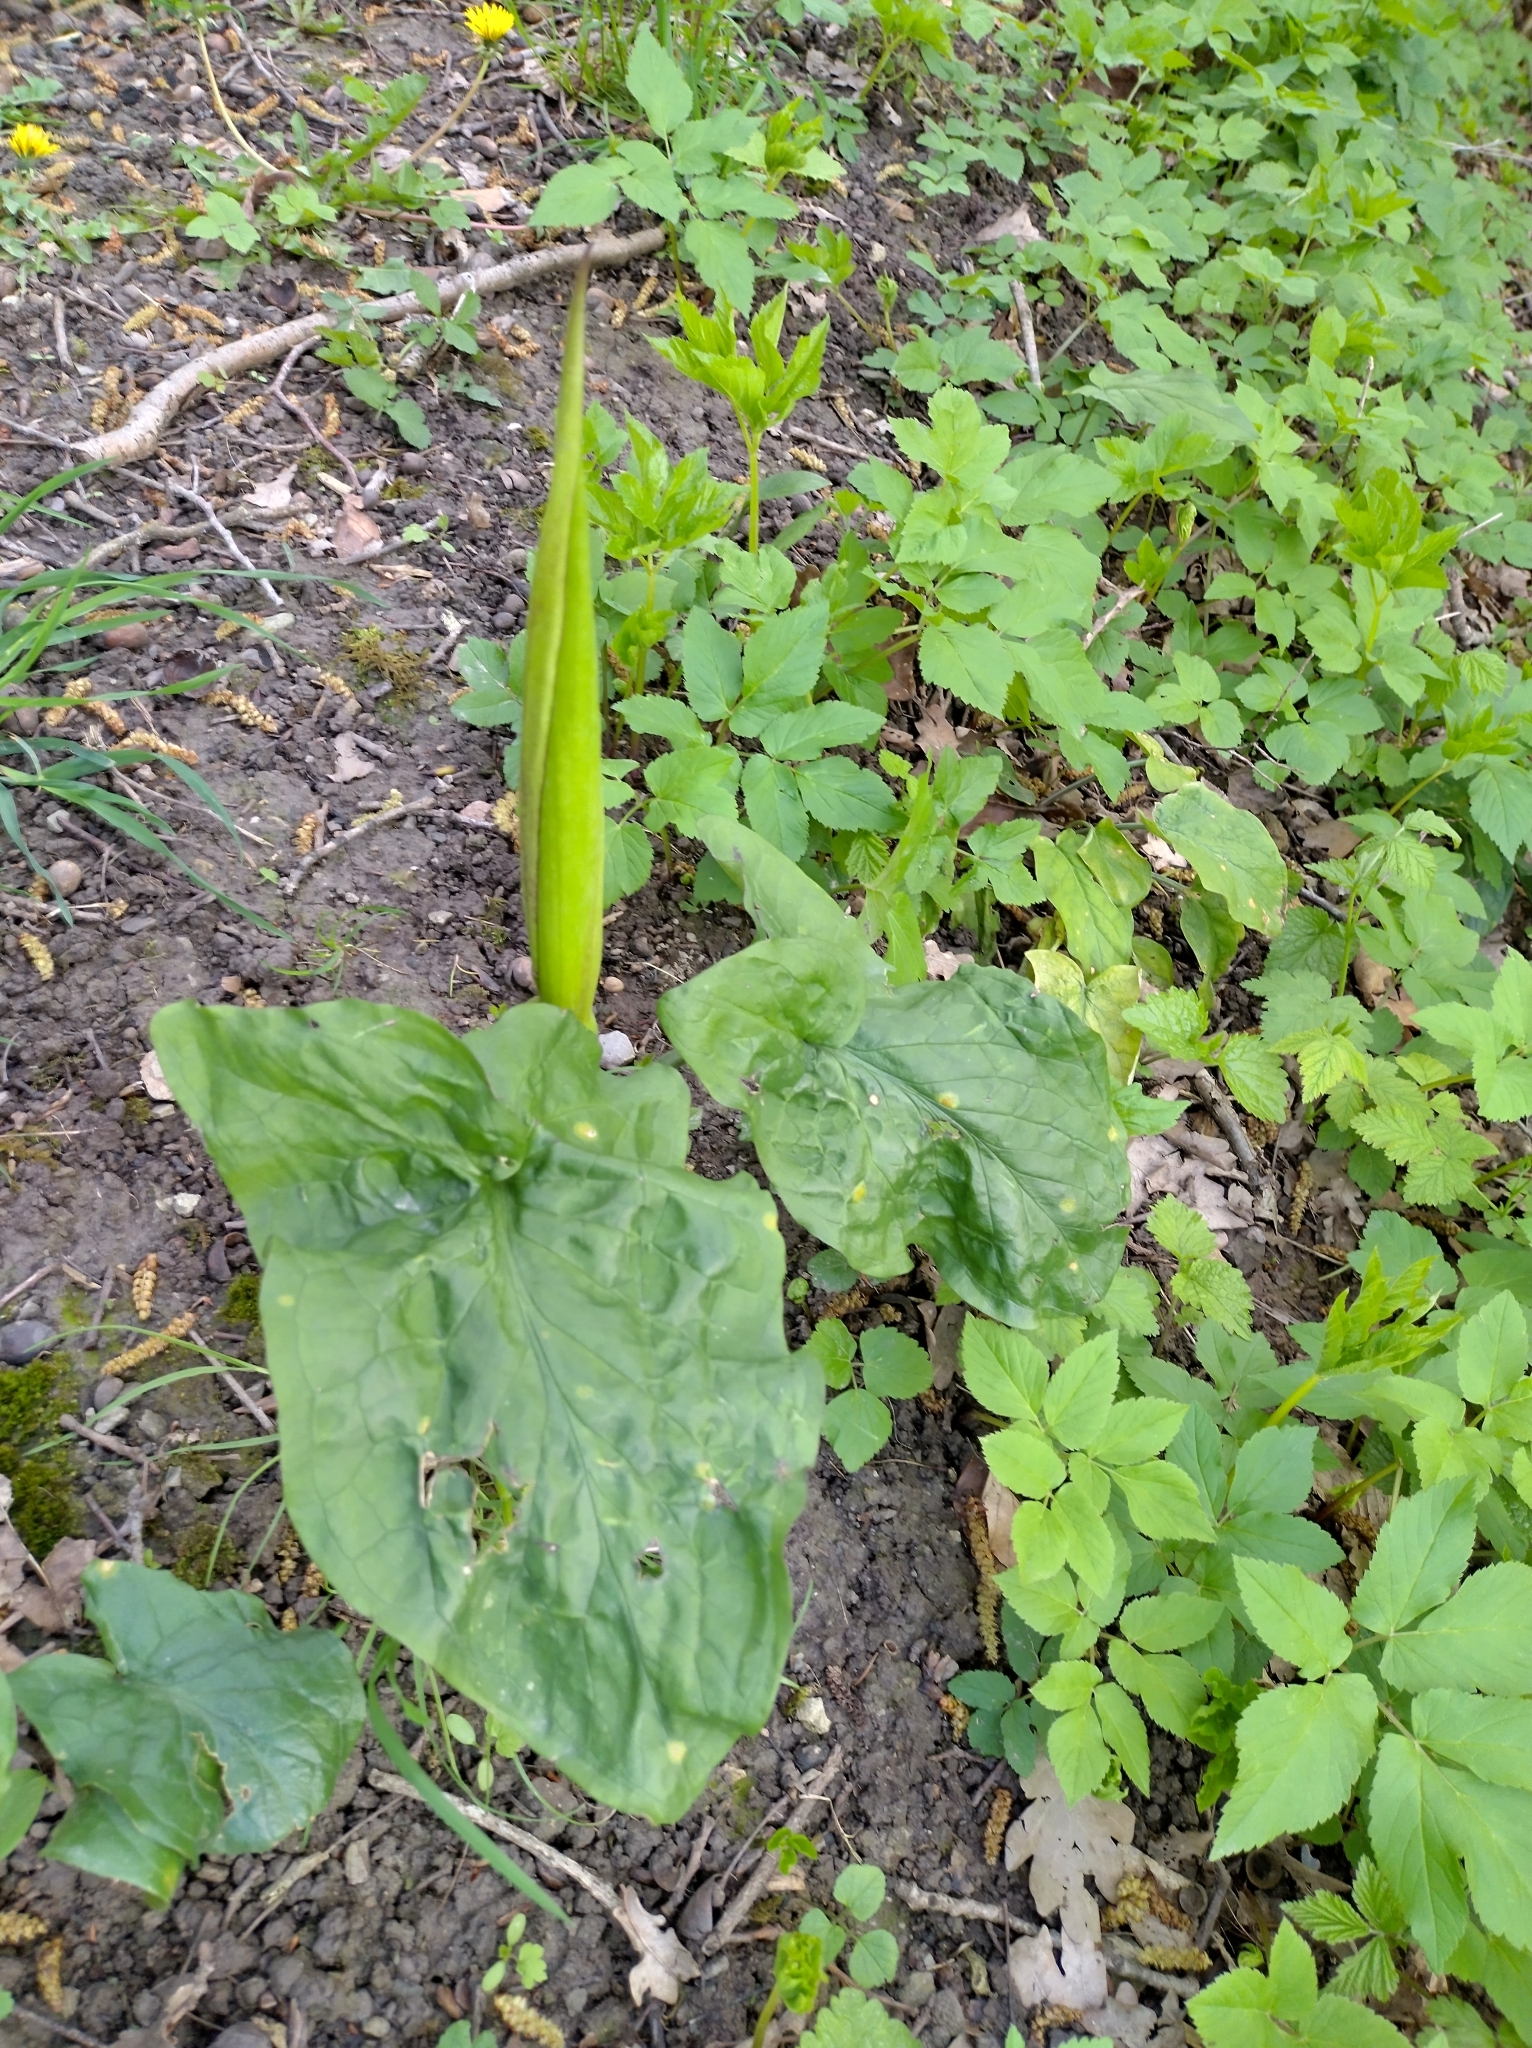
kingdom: Plantae
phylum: Tracheophyta
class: Liliopsida
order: Alismatales
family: Araceae
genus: Arum
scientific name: Arum maculatum
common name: Lords-and-ladies
